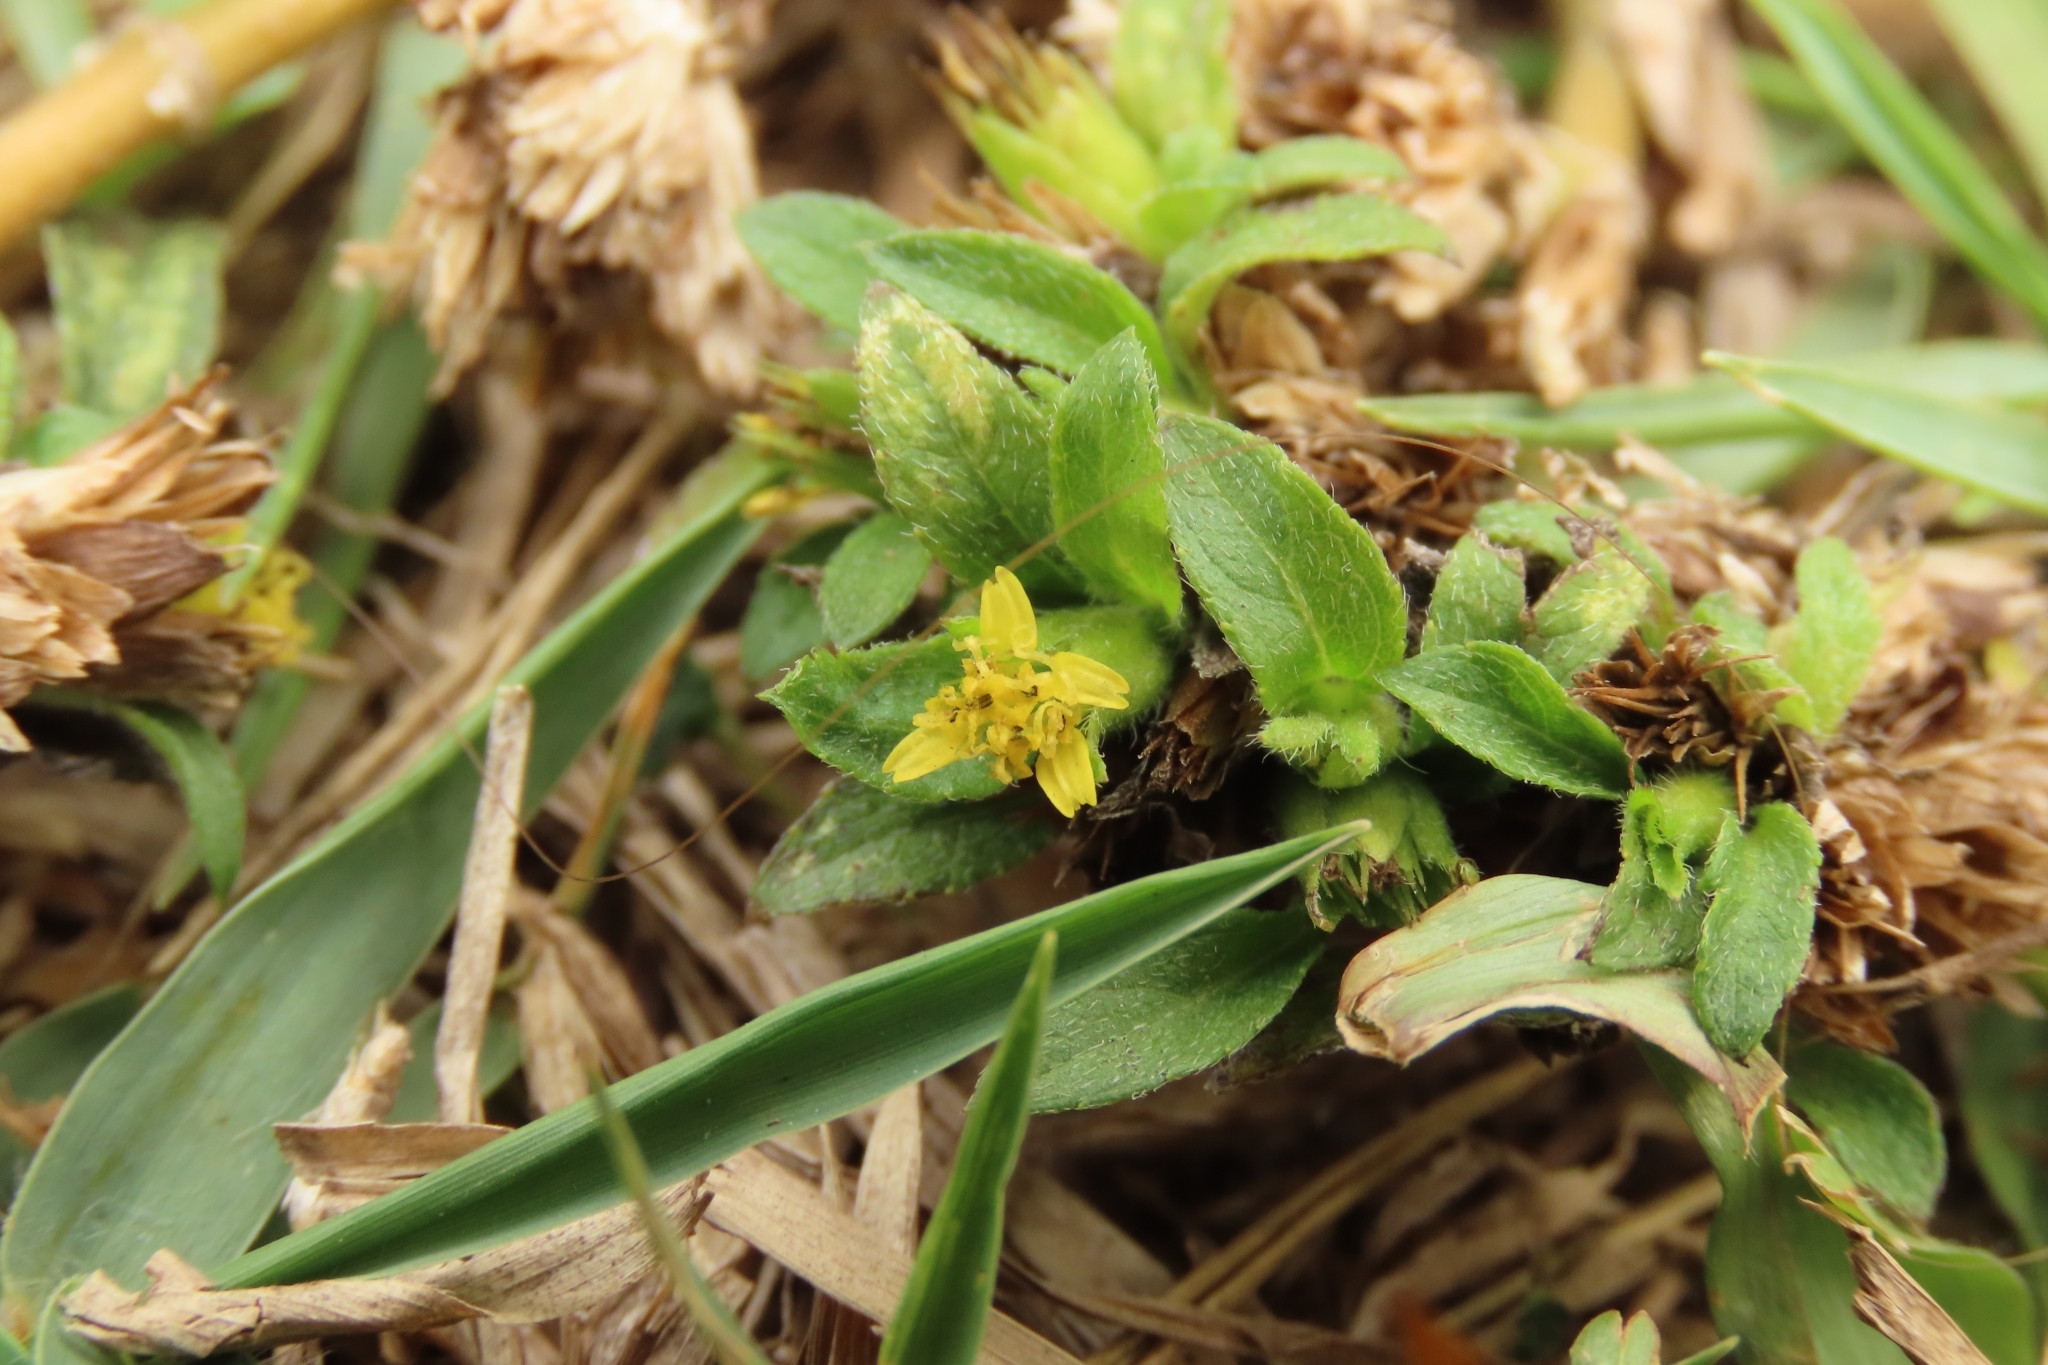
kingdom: Plantae
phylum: Tracheophyta
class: Magnoliopsida
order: Asterales
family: Asteraceae
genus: Synedrella
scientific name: Synedrella nodiflora
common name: Nodeweed
